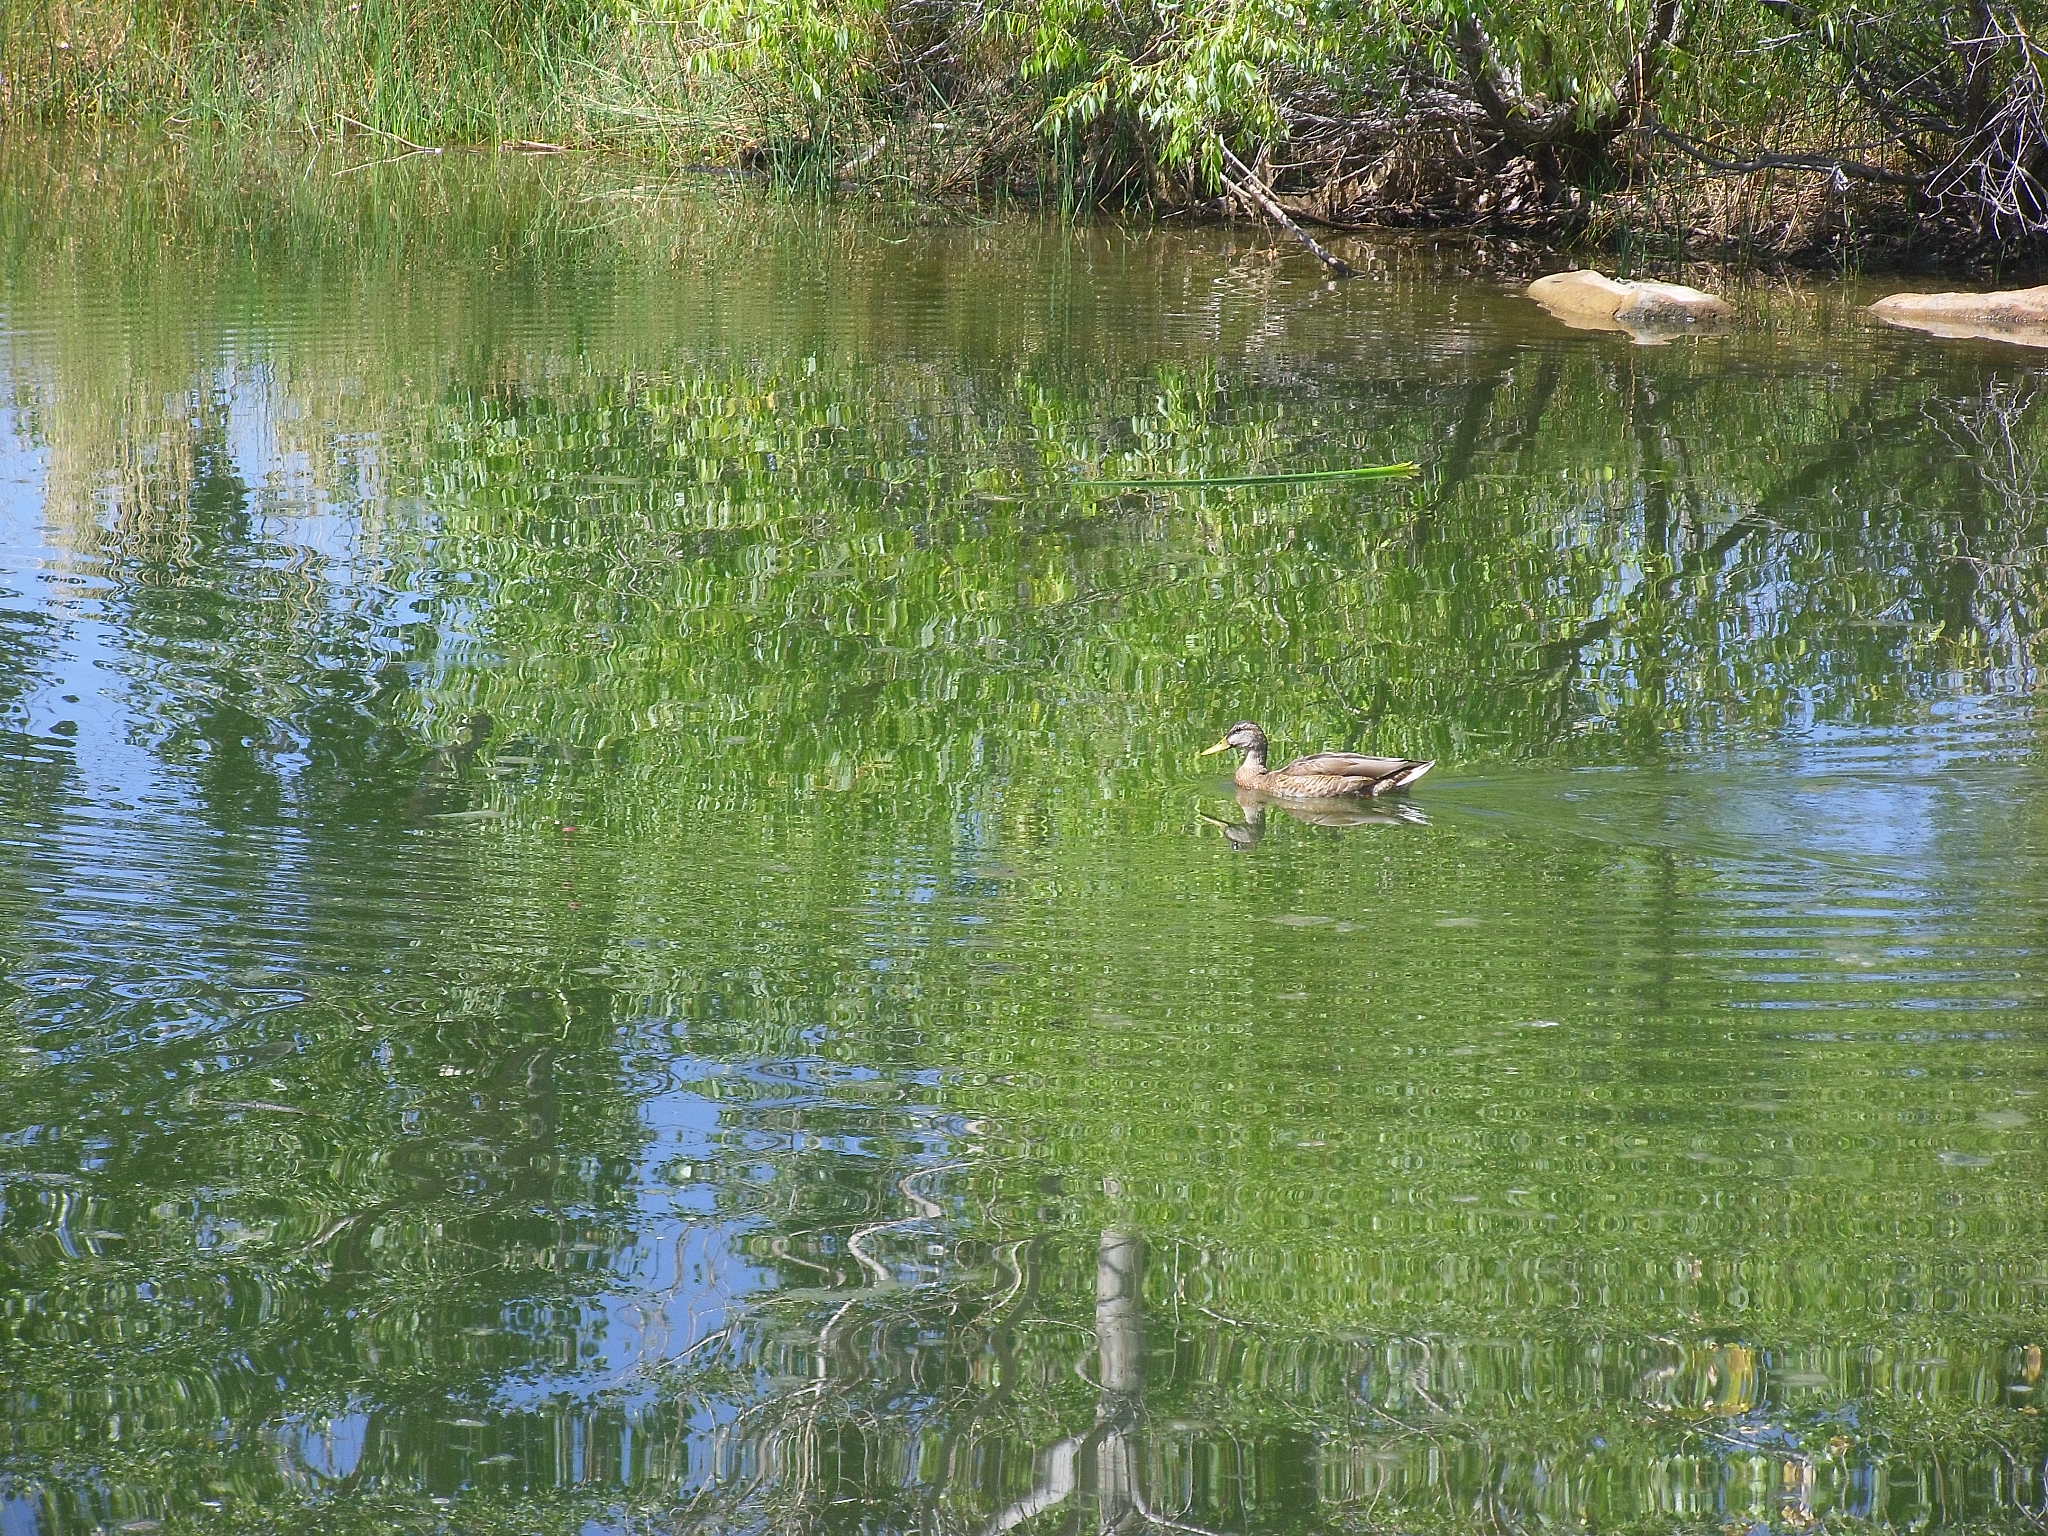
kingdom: Animalia
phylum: Chordata
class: Aves
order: Anseriformes
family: Anatidae
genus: Anas
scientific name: Anas platyrhynchos
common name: Mallard
